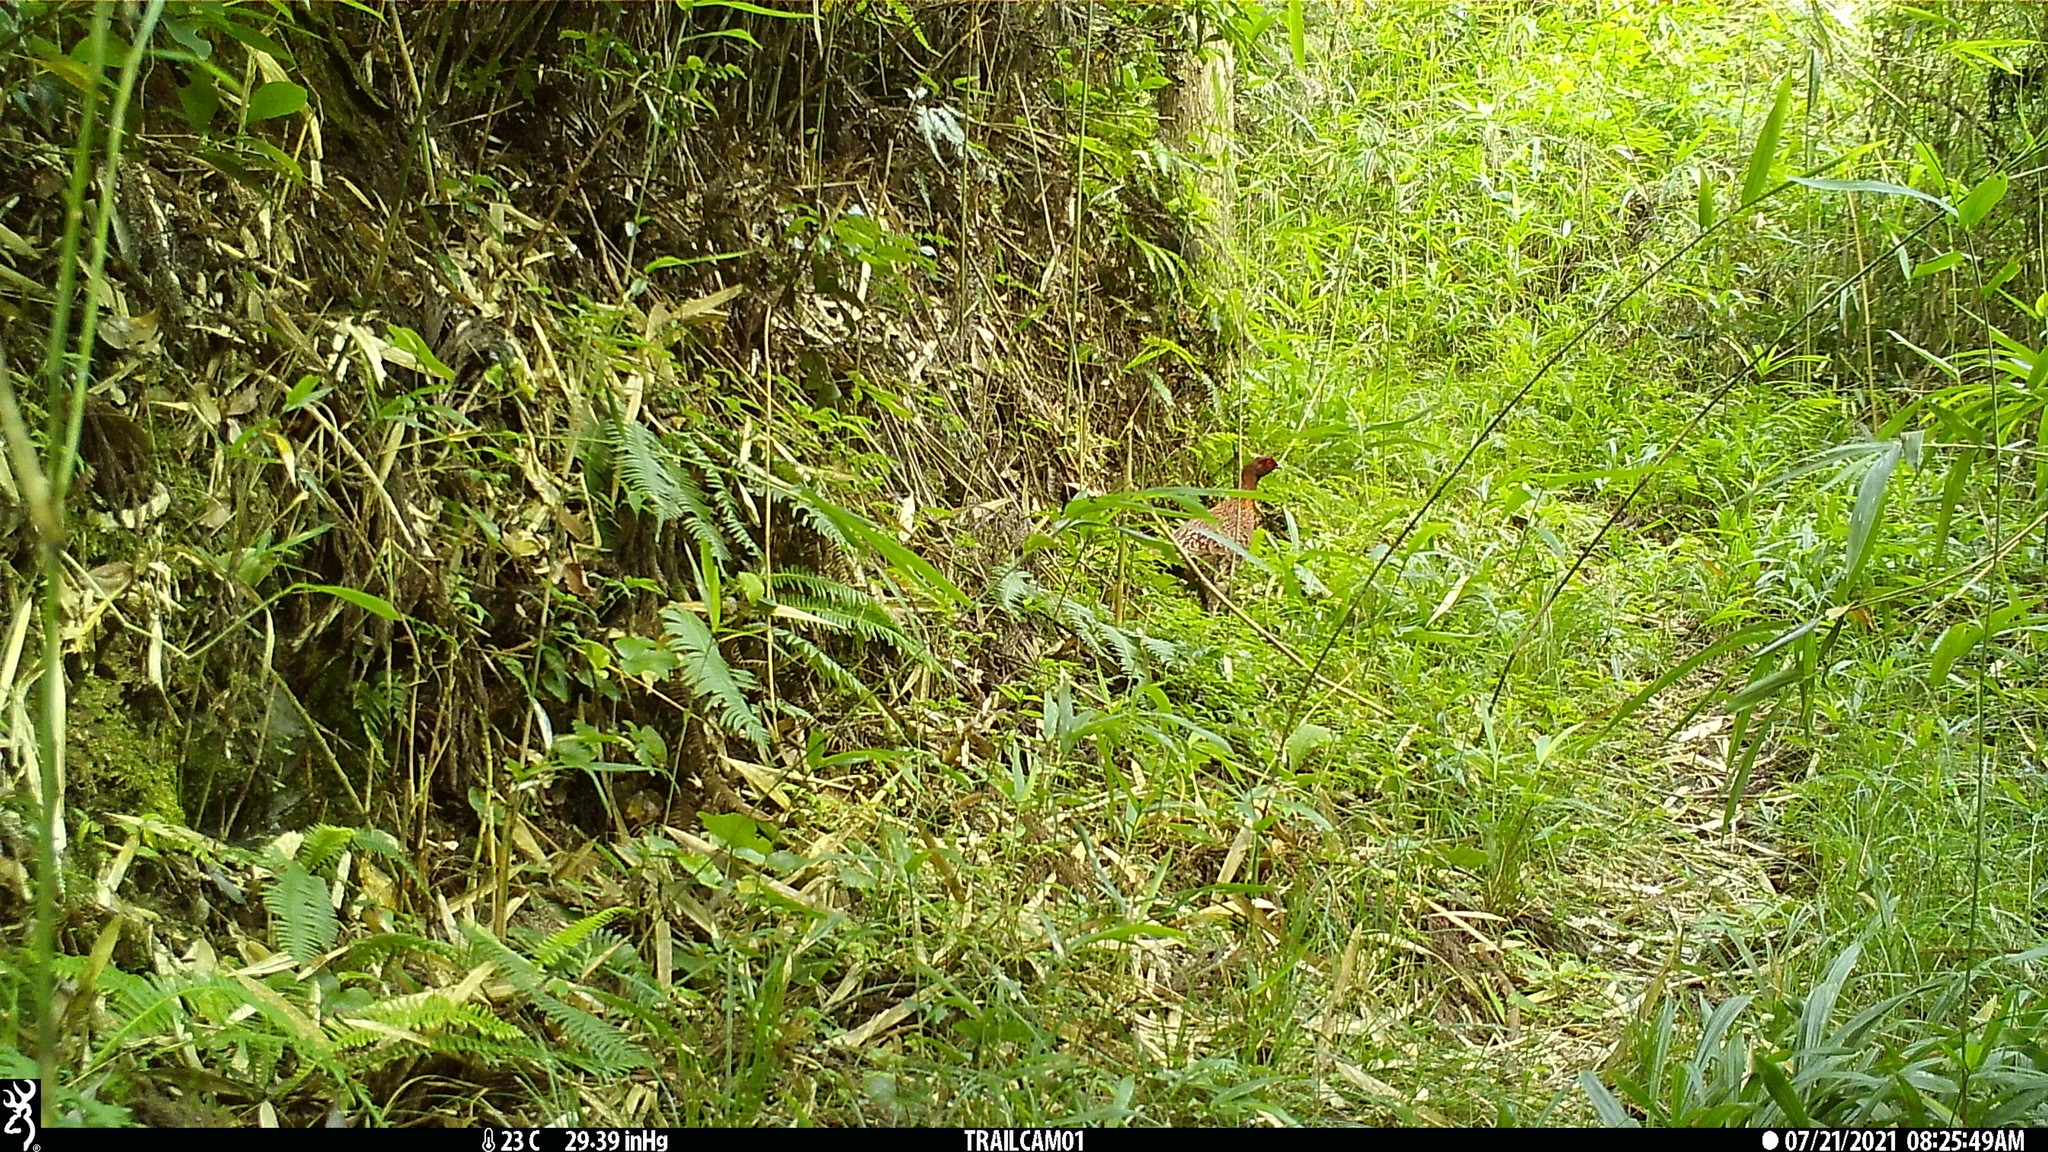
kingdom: Animalia
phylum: Chordata
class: Aves
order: Galliformes
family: Phasianidae
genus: Syrmaticus
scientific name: Syrmaticus soemmerringii
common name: Copper pheasant
